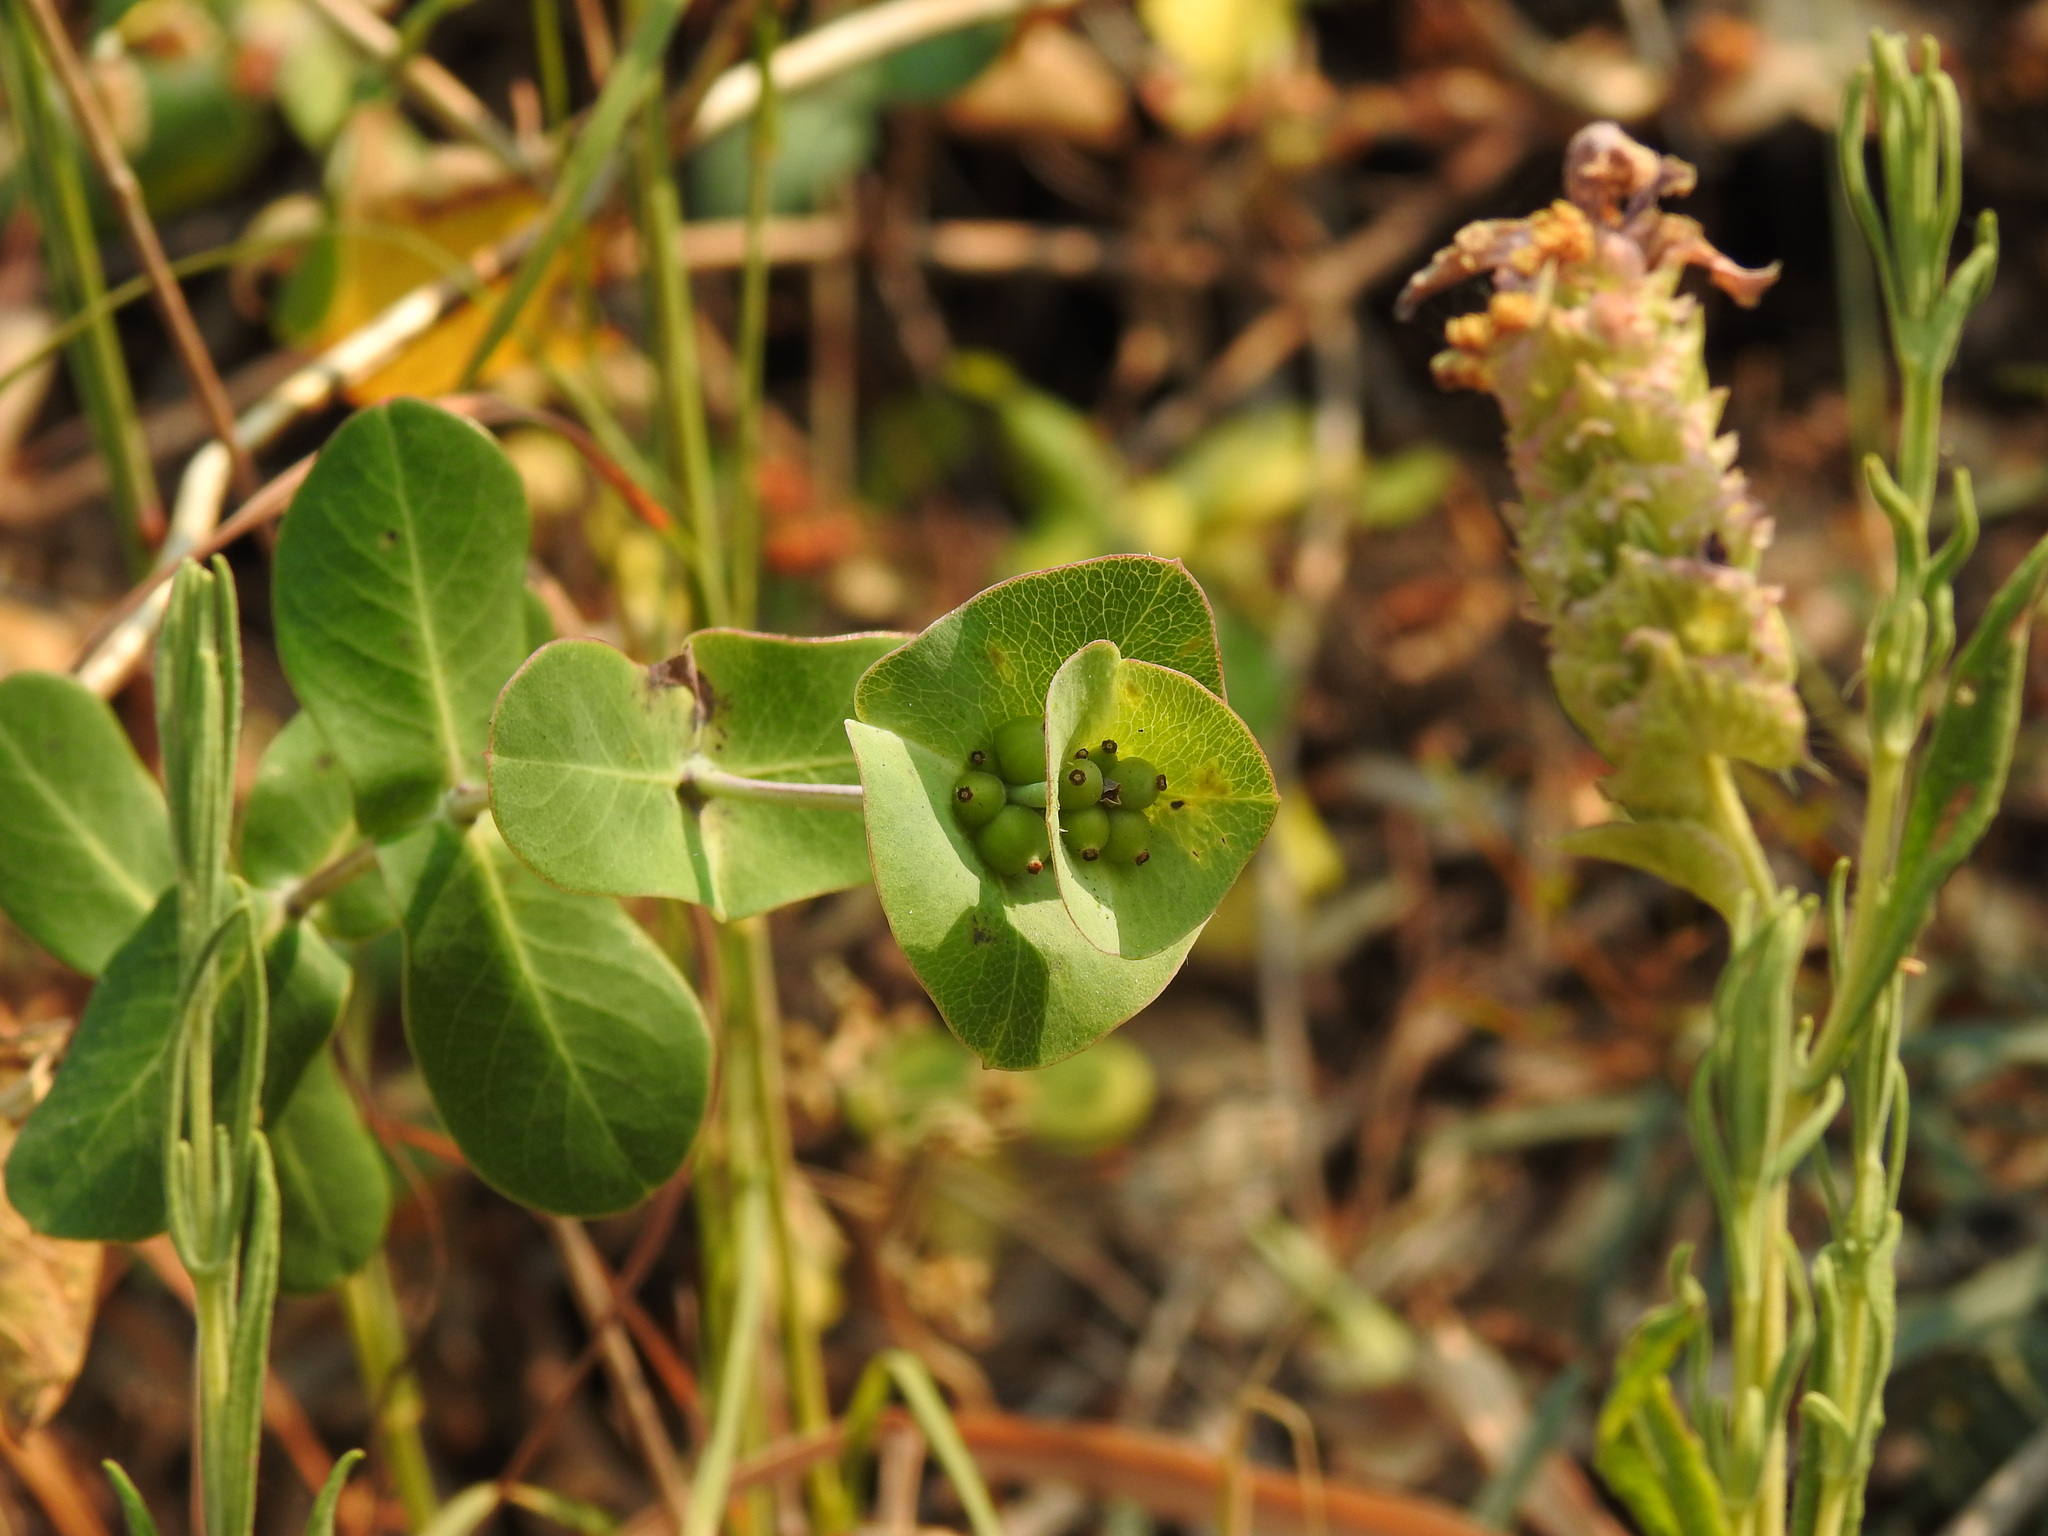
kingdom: Plantae
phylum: Tracheophyta
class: Magnoliopsida
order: Dipsacales
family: Caprifoliaceae
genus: Lonicera
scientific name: Lonicera implexa
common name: Minorca honeysuckle
